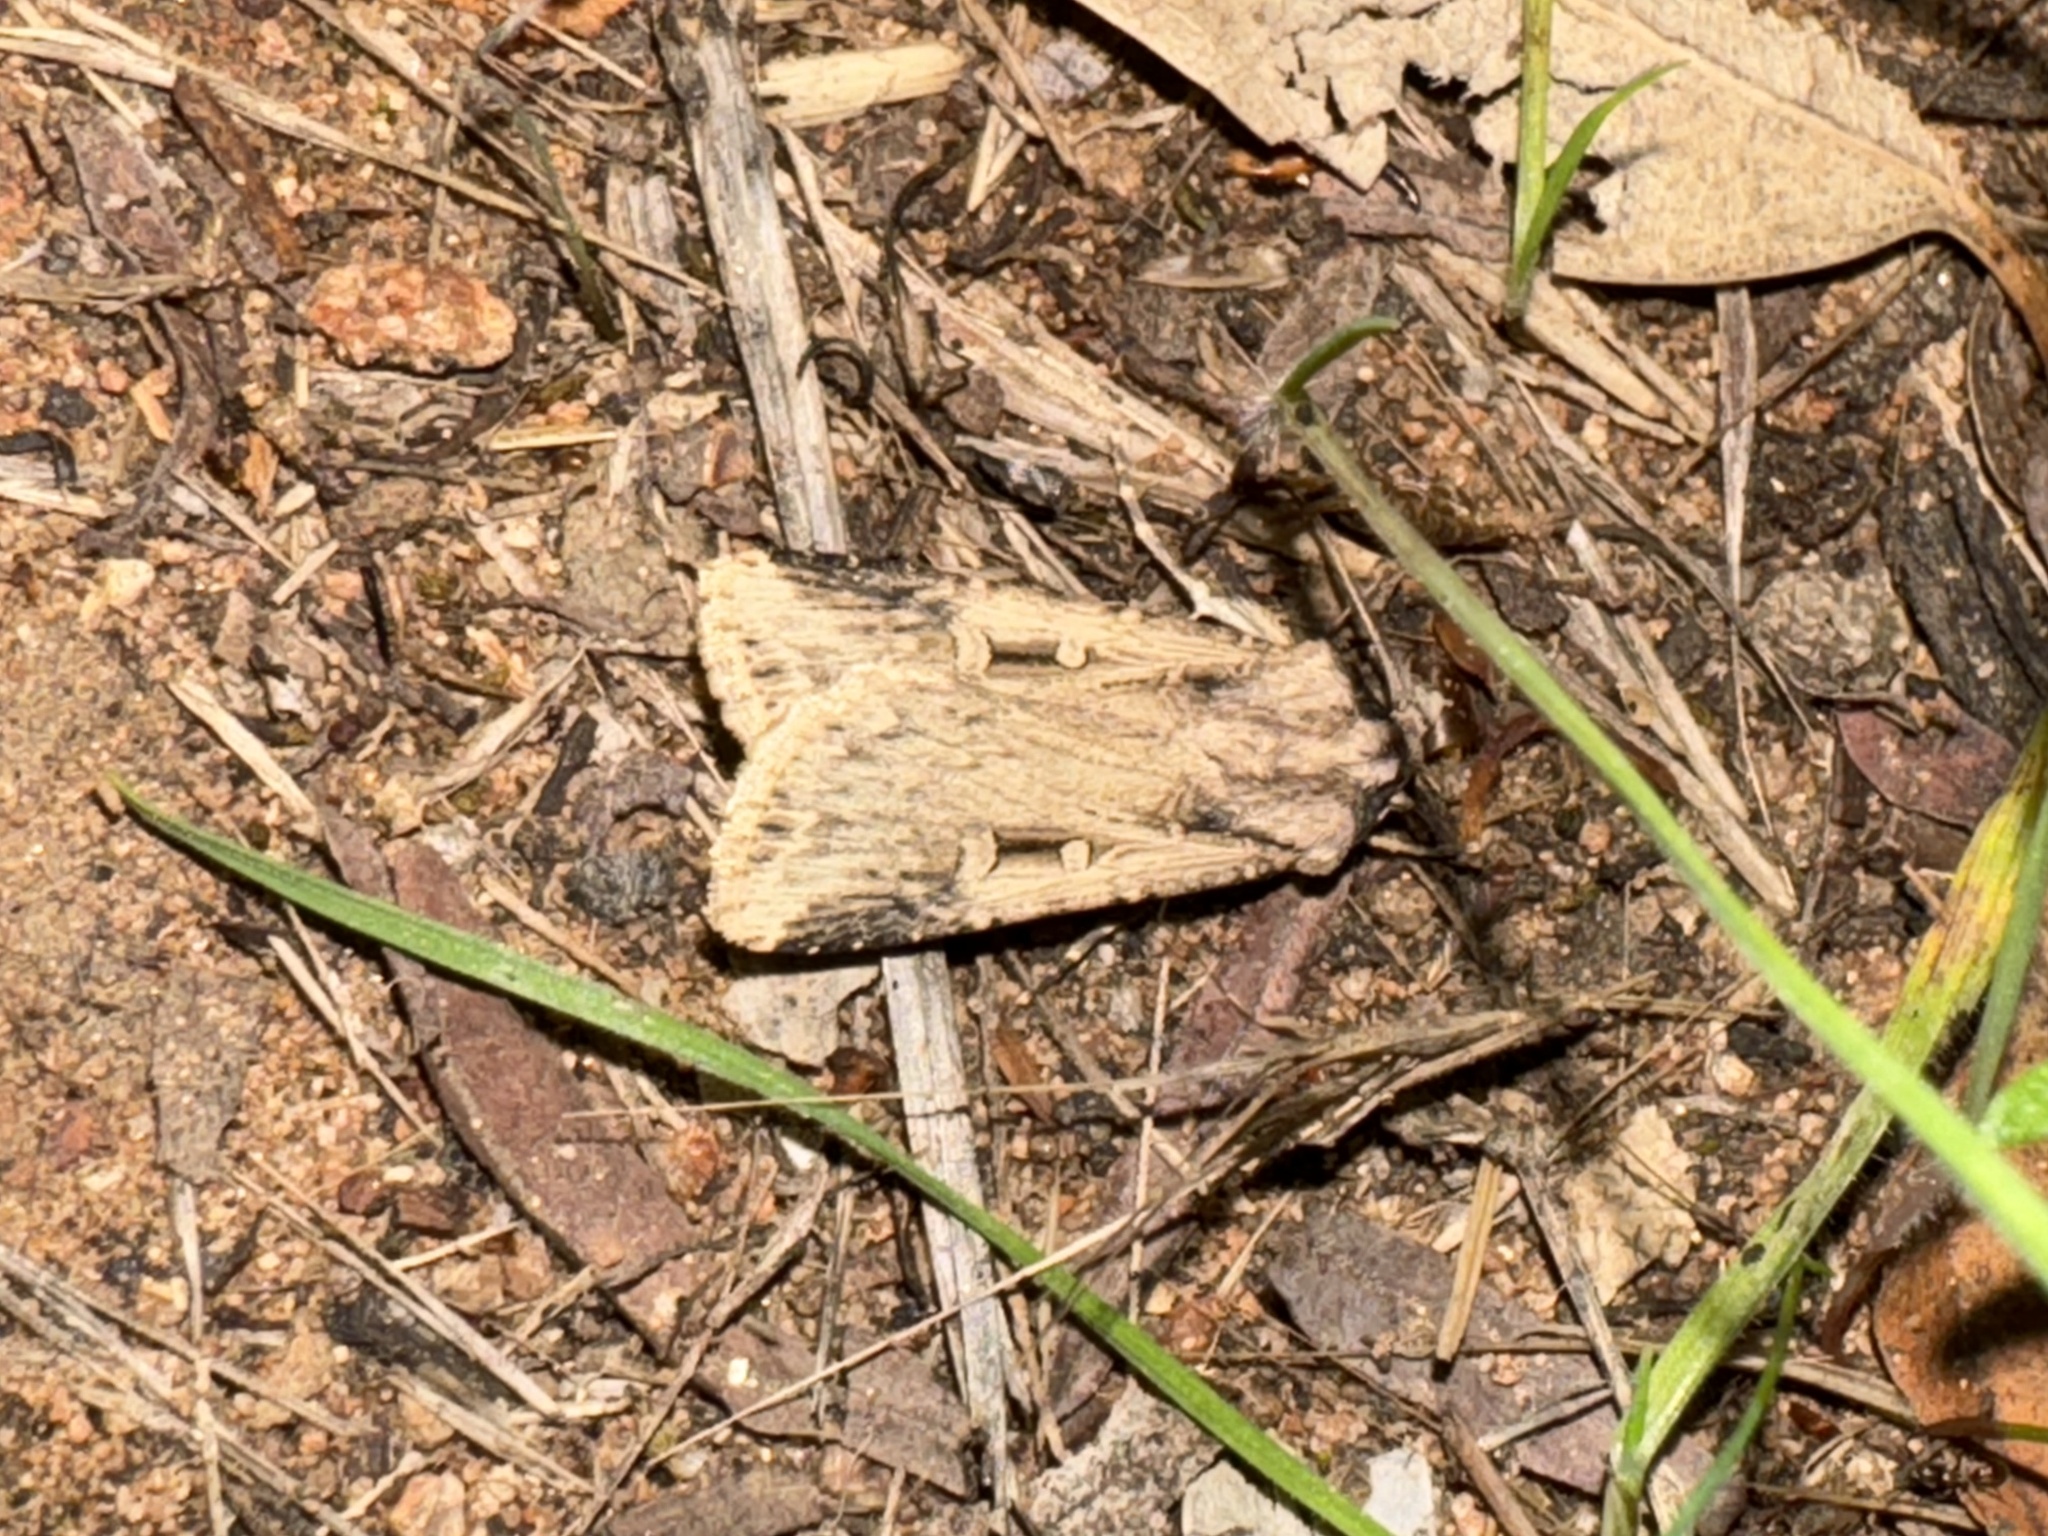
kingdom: Animalia
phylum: Arthropoda
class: Insecta
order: Lepidoptera
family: Noctuidae
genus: Feltia
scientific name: Feltia subterranea
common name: Granulate cutworm
